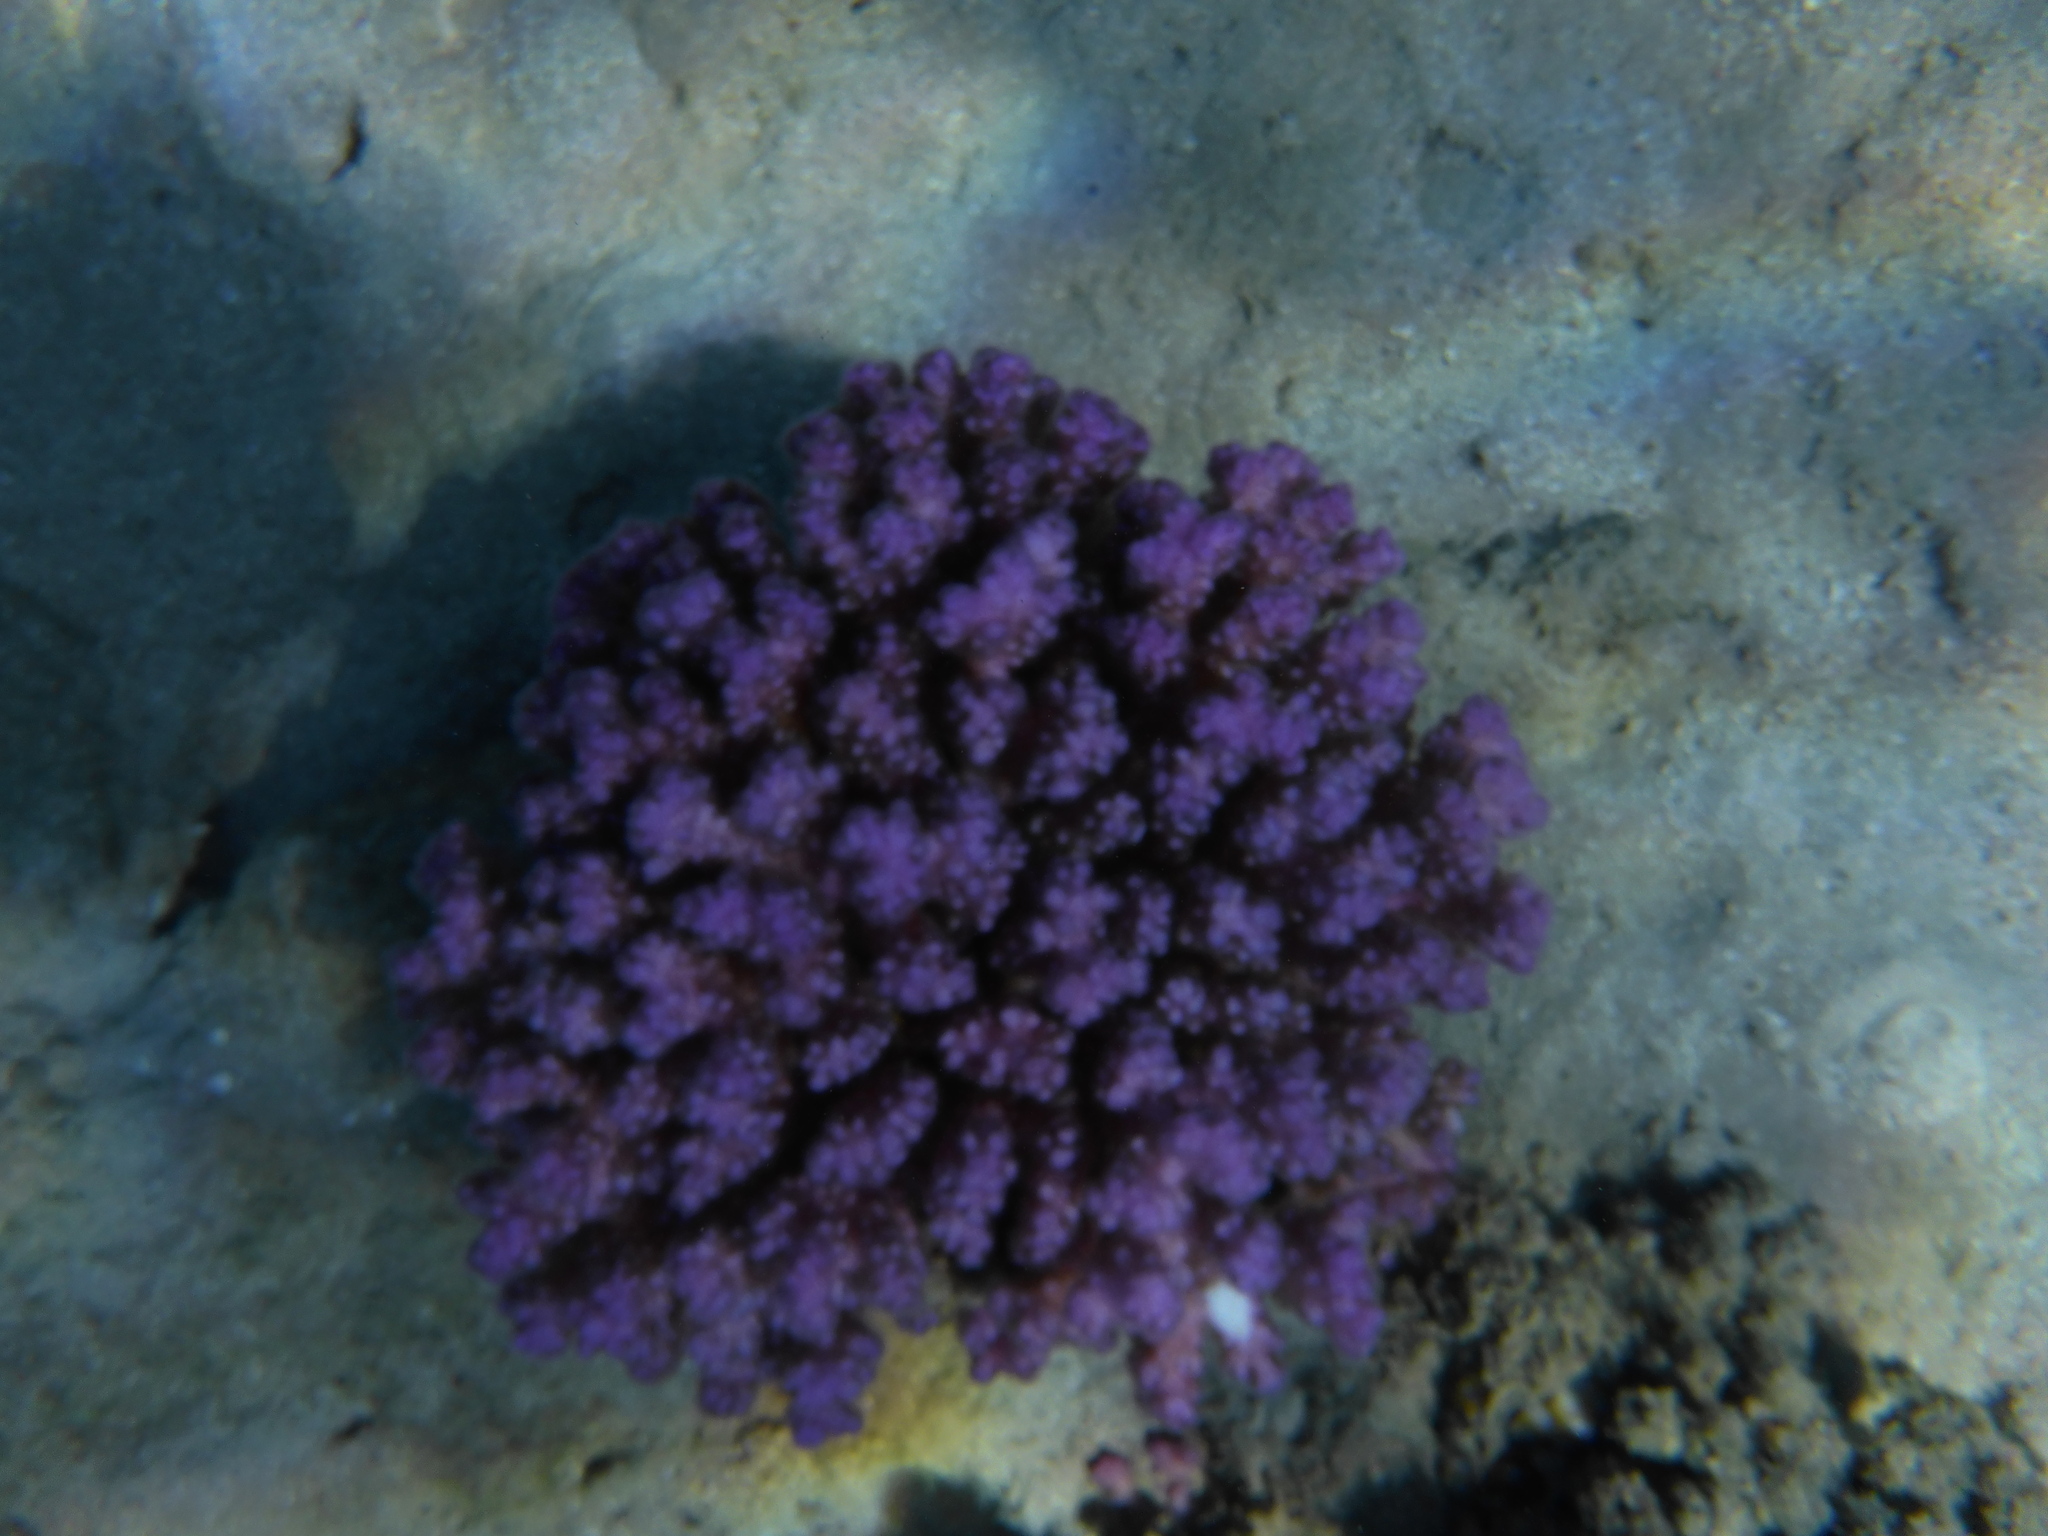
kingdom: Animalia
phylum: Cnidaria
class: Anthozoa
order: Scleractinia
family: Pocilloporidae
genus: Pocillopora
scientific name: Pocillopora verrucosa
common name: Cauliflower coral
